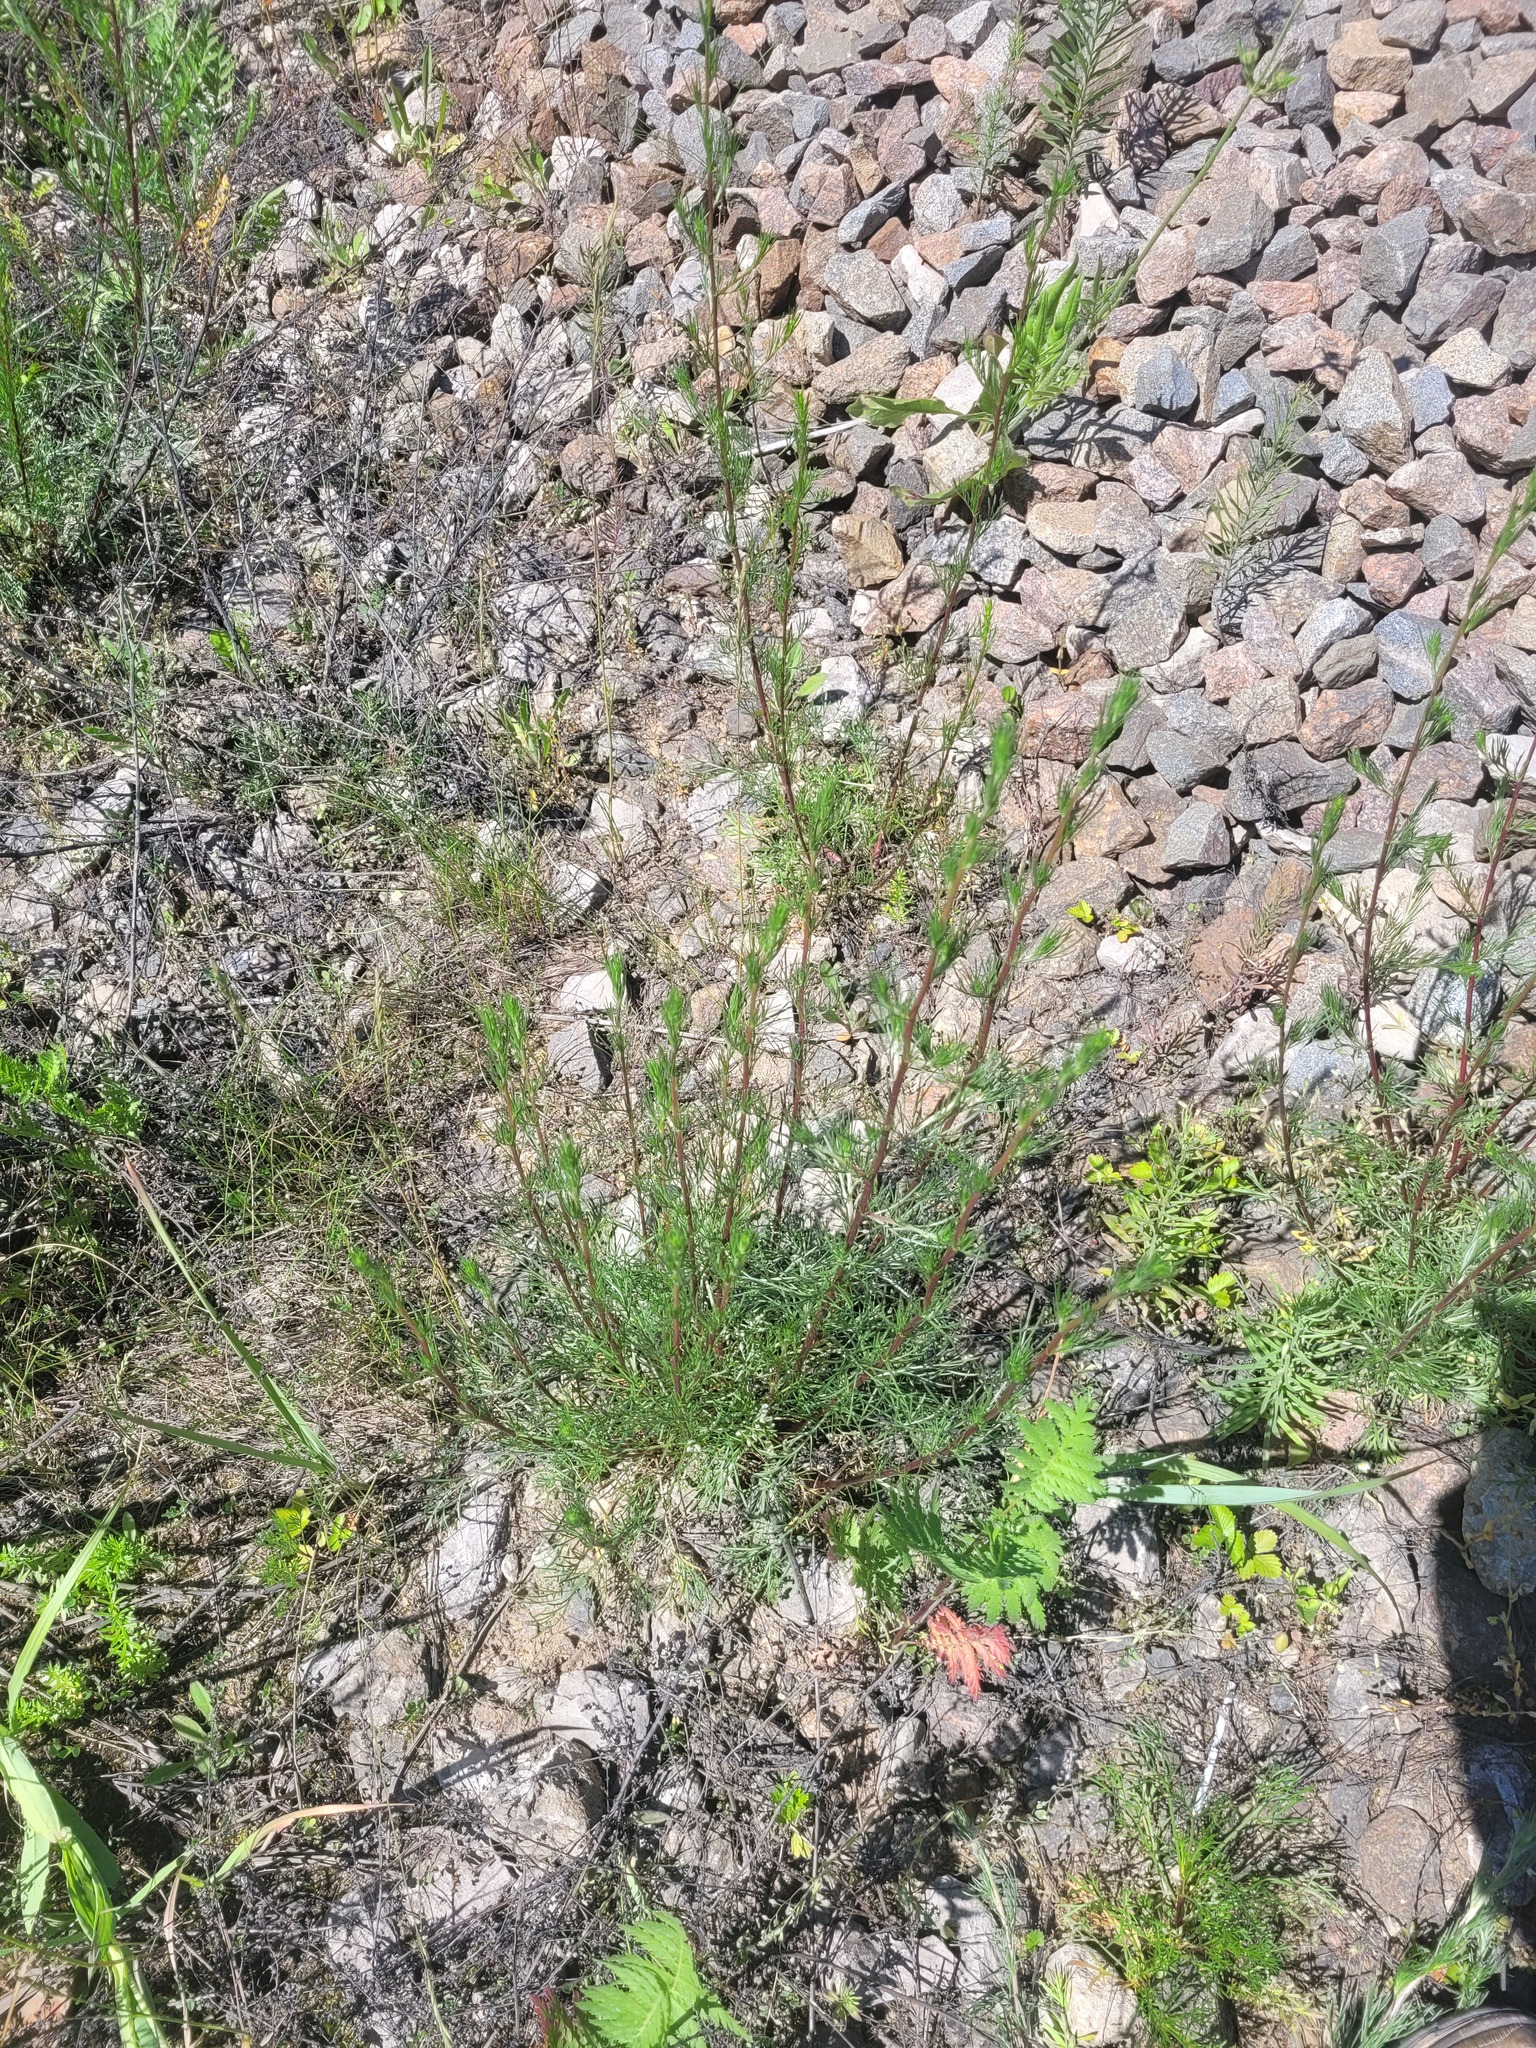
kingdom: Plantae
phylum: Tracheophyta
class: Magnoliopsida
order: Asterales
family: Asteraceae
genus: Artemisia
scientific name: Artemisia campestris
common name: Field wormwood
